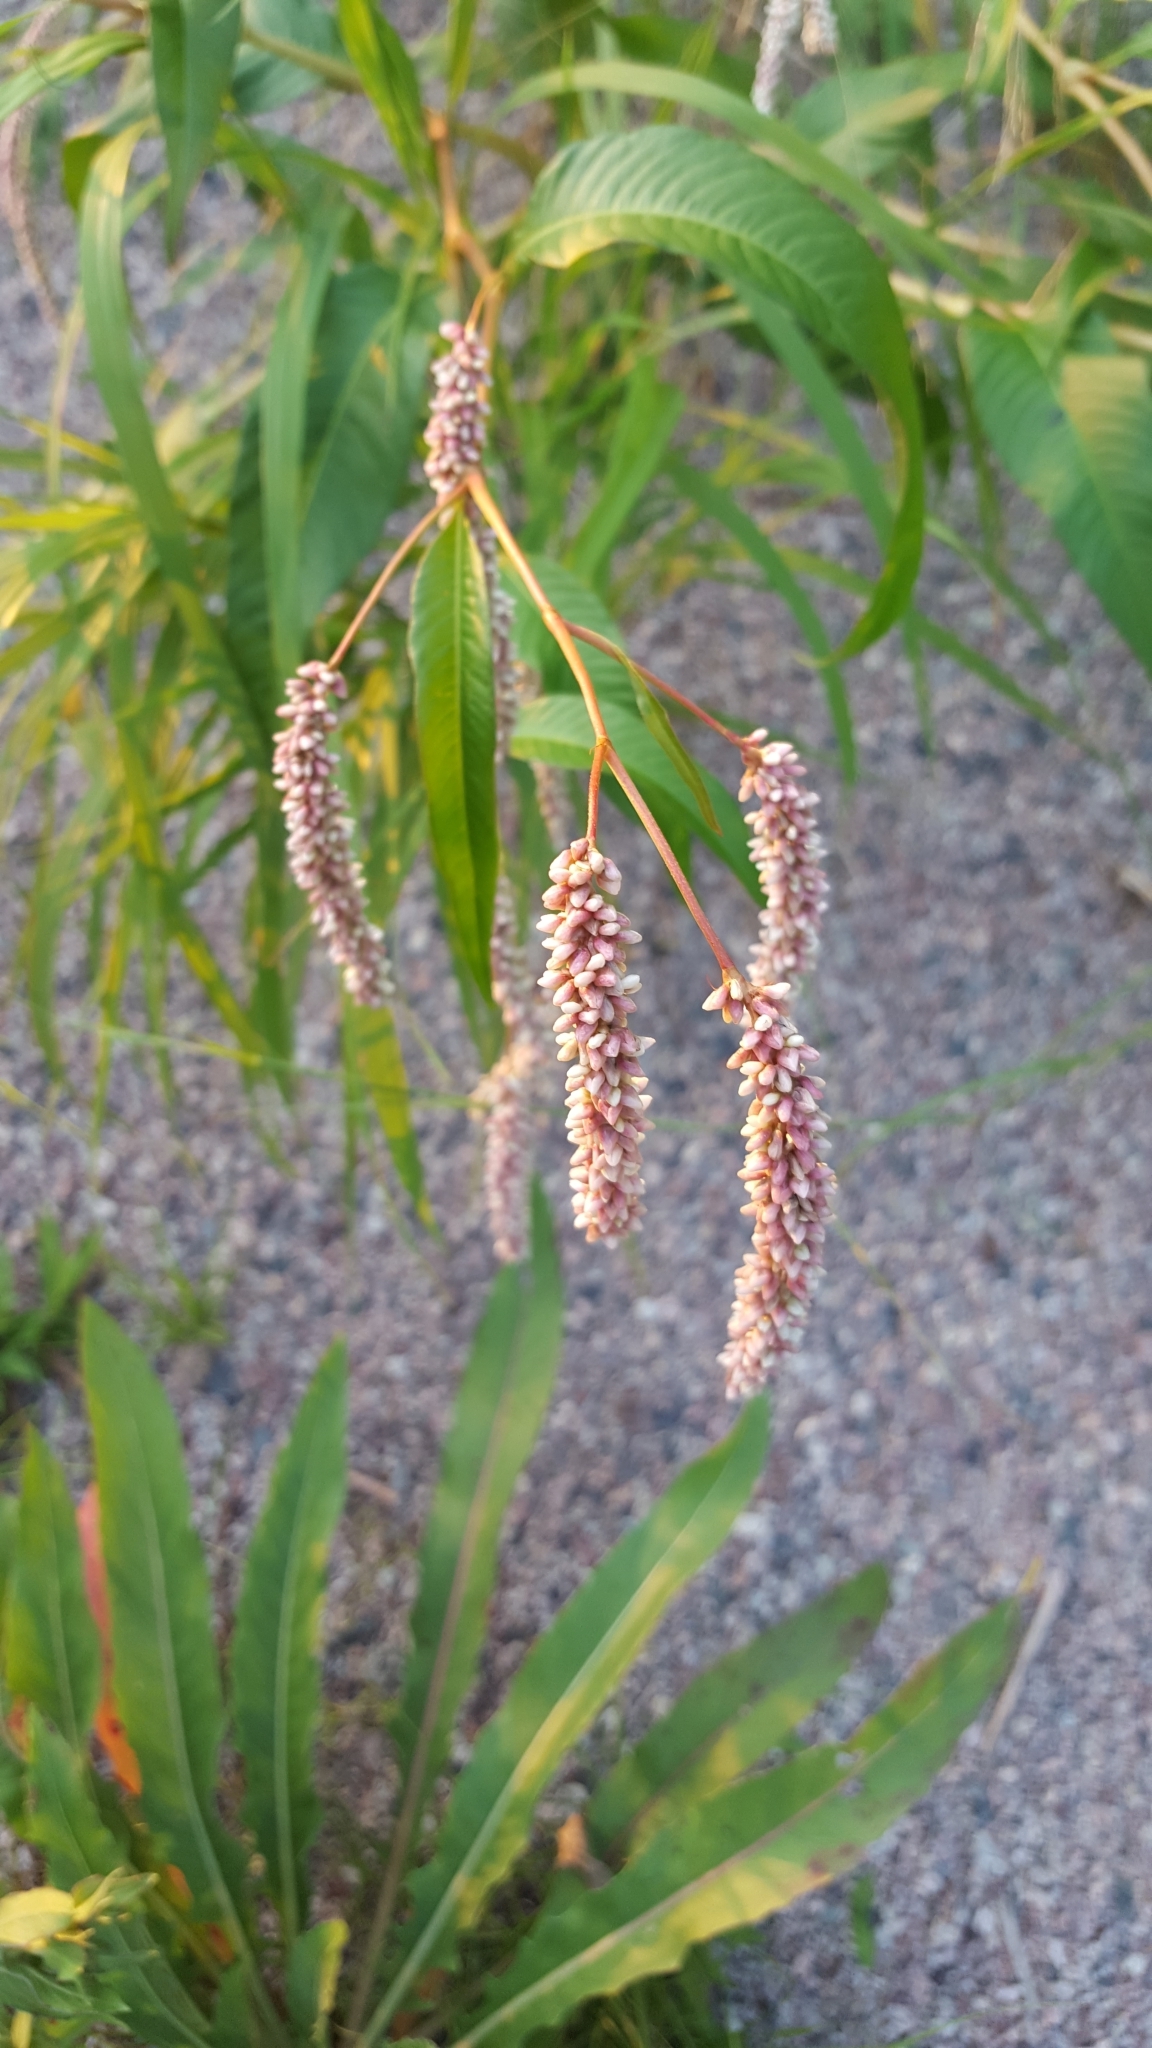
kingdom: Plantae
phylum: Tracheophyta
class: Magnoliopsida
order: Caryophyllales
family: Polygonaceae
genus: Persicaria
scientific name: Persicaria lapathifolia
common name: Curlytop knotweed
